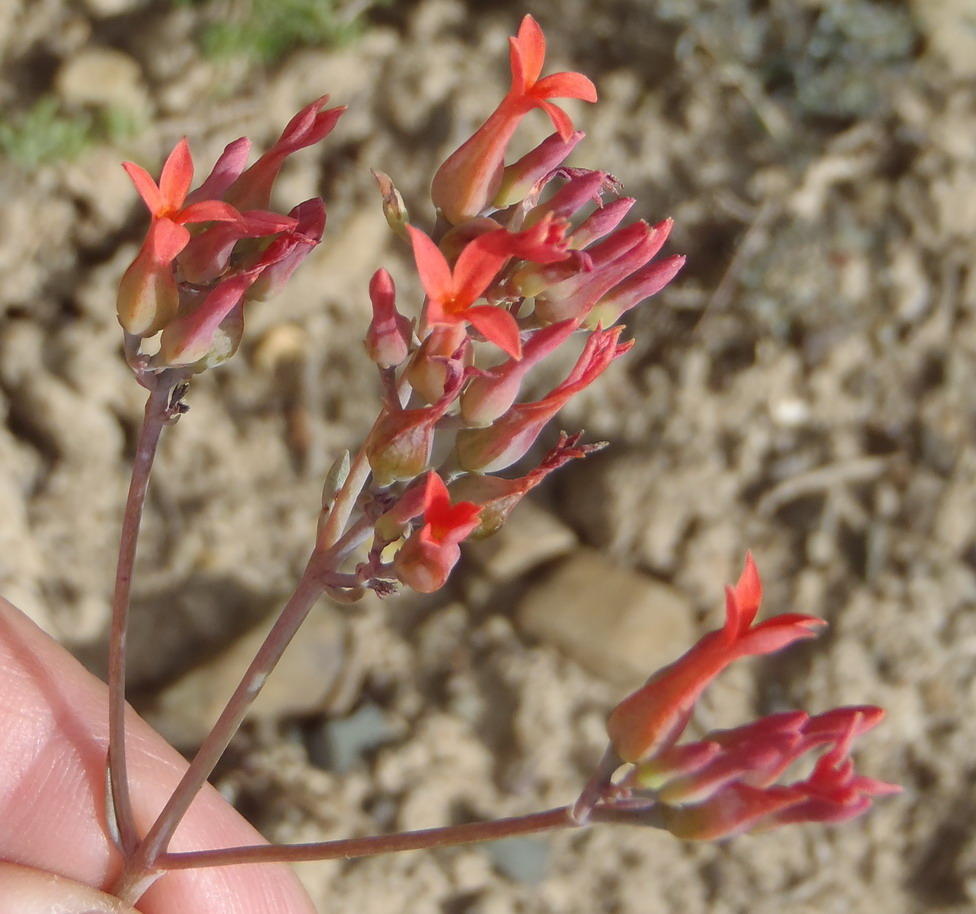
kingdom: Plantae
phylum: Tracheophyta
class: Magnoliopsida
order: Saxifragales
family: Crassulaceae
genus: Kalanchoe
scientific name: Kalanchoe rotundifolia
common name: Common kalanchoe
